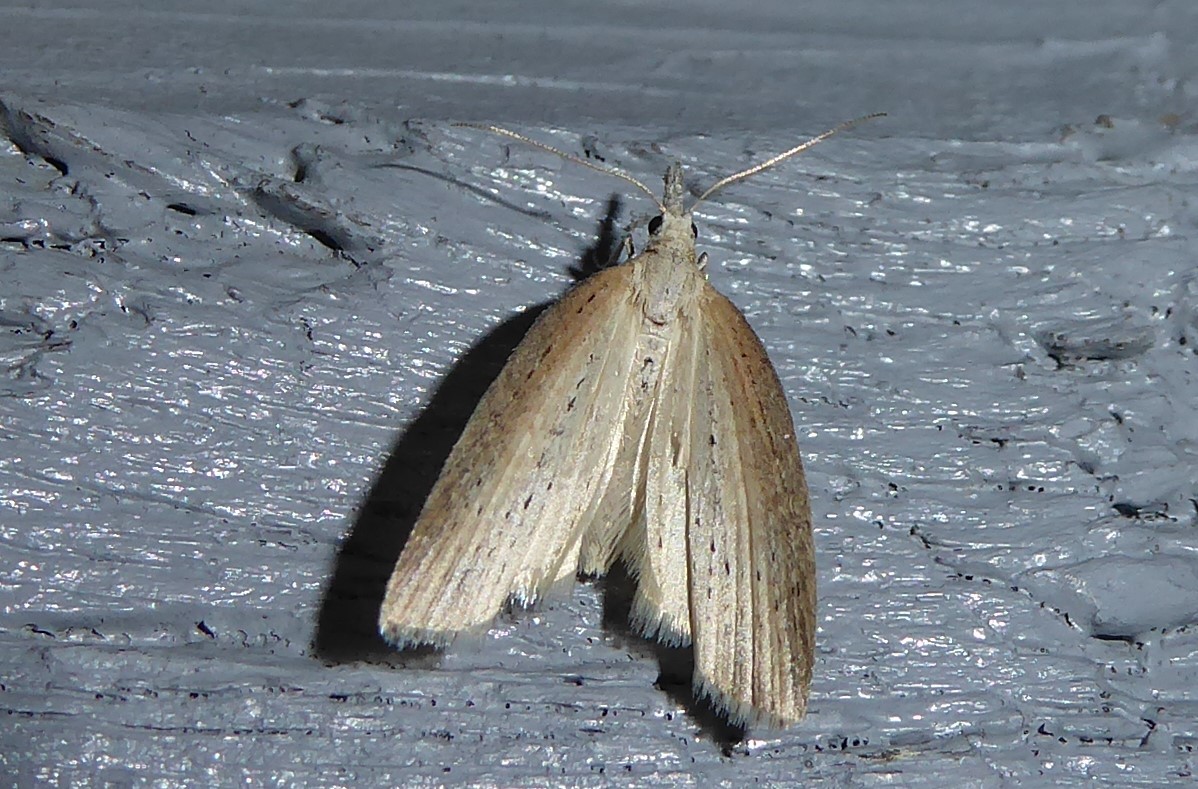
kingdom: Animalia
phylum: Arthropoda
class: Insecta
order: Lepidoptera
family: Geometridae
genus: Microdes
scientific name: Microdes epicryptis
